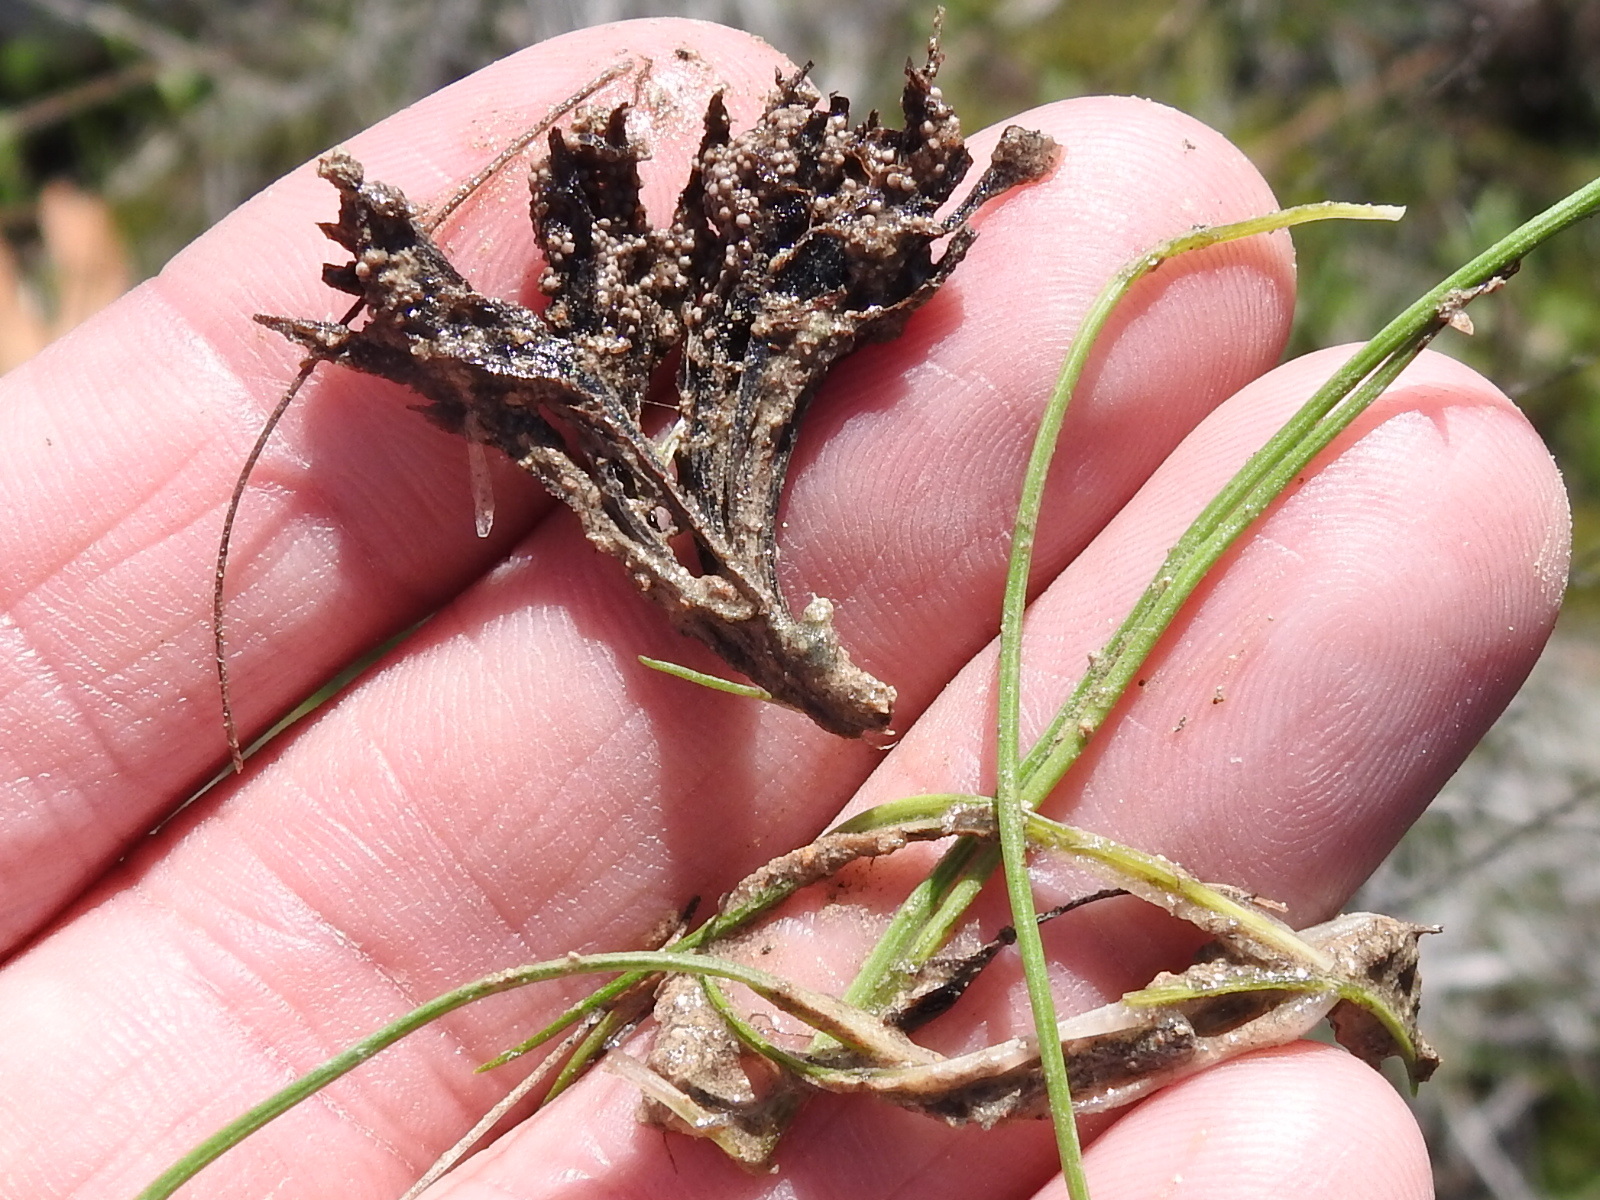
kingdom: Plantae
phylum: Tracheophyta
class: Lycopodiopsida
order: Isoetales
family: Isoetaceae
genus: Isoetes
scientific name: Isoetes butleri
